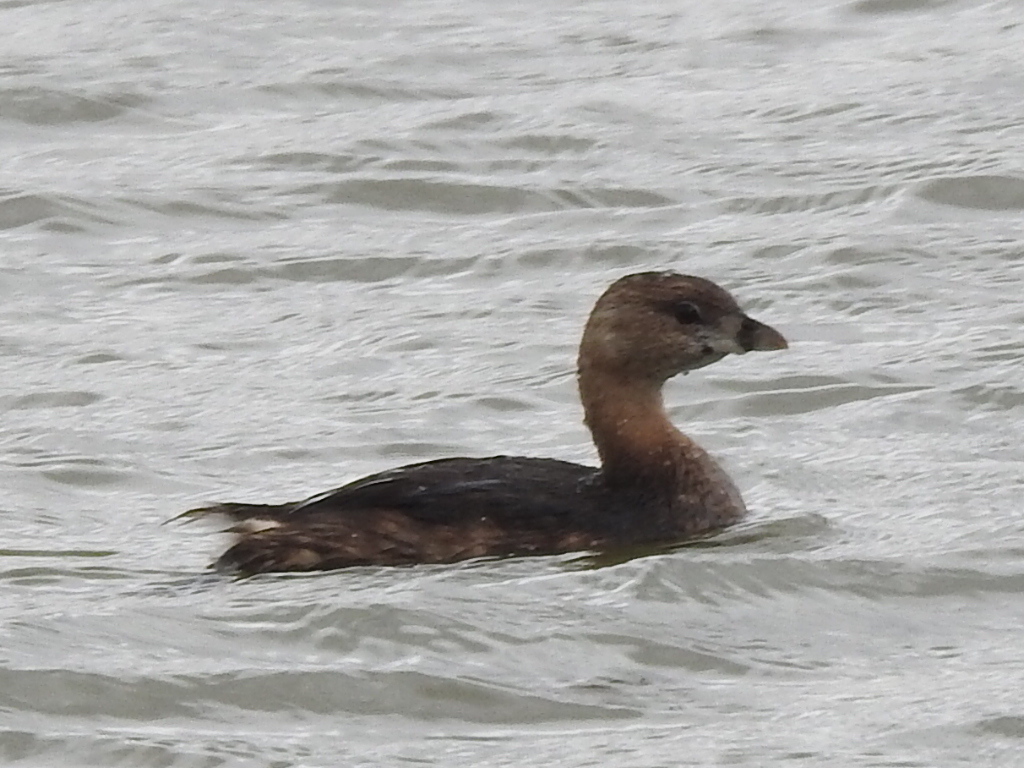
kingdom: Animalia
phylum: Chordata
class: Aves
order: Podicipediformes
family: Podicipedidae
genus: Podilymbus
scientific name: Podilymbus podiceps
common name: Pied-billed grebe
